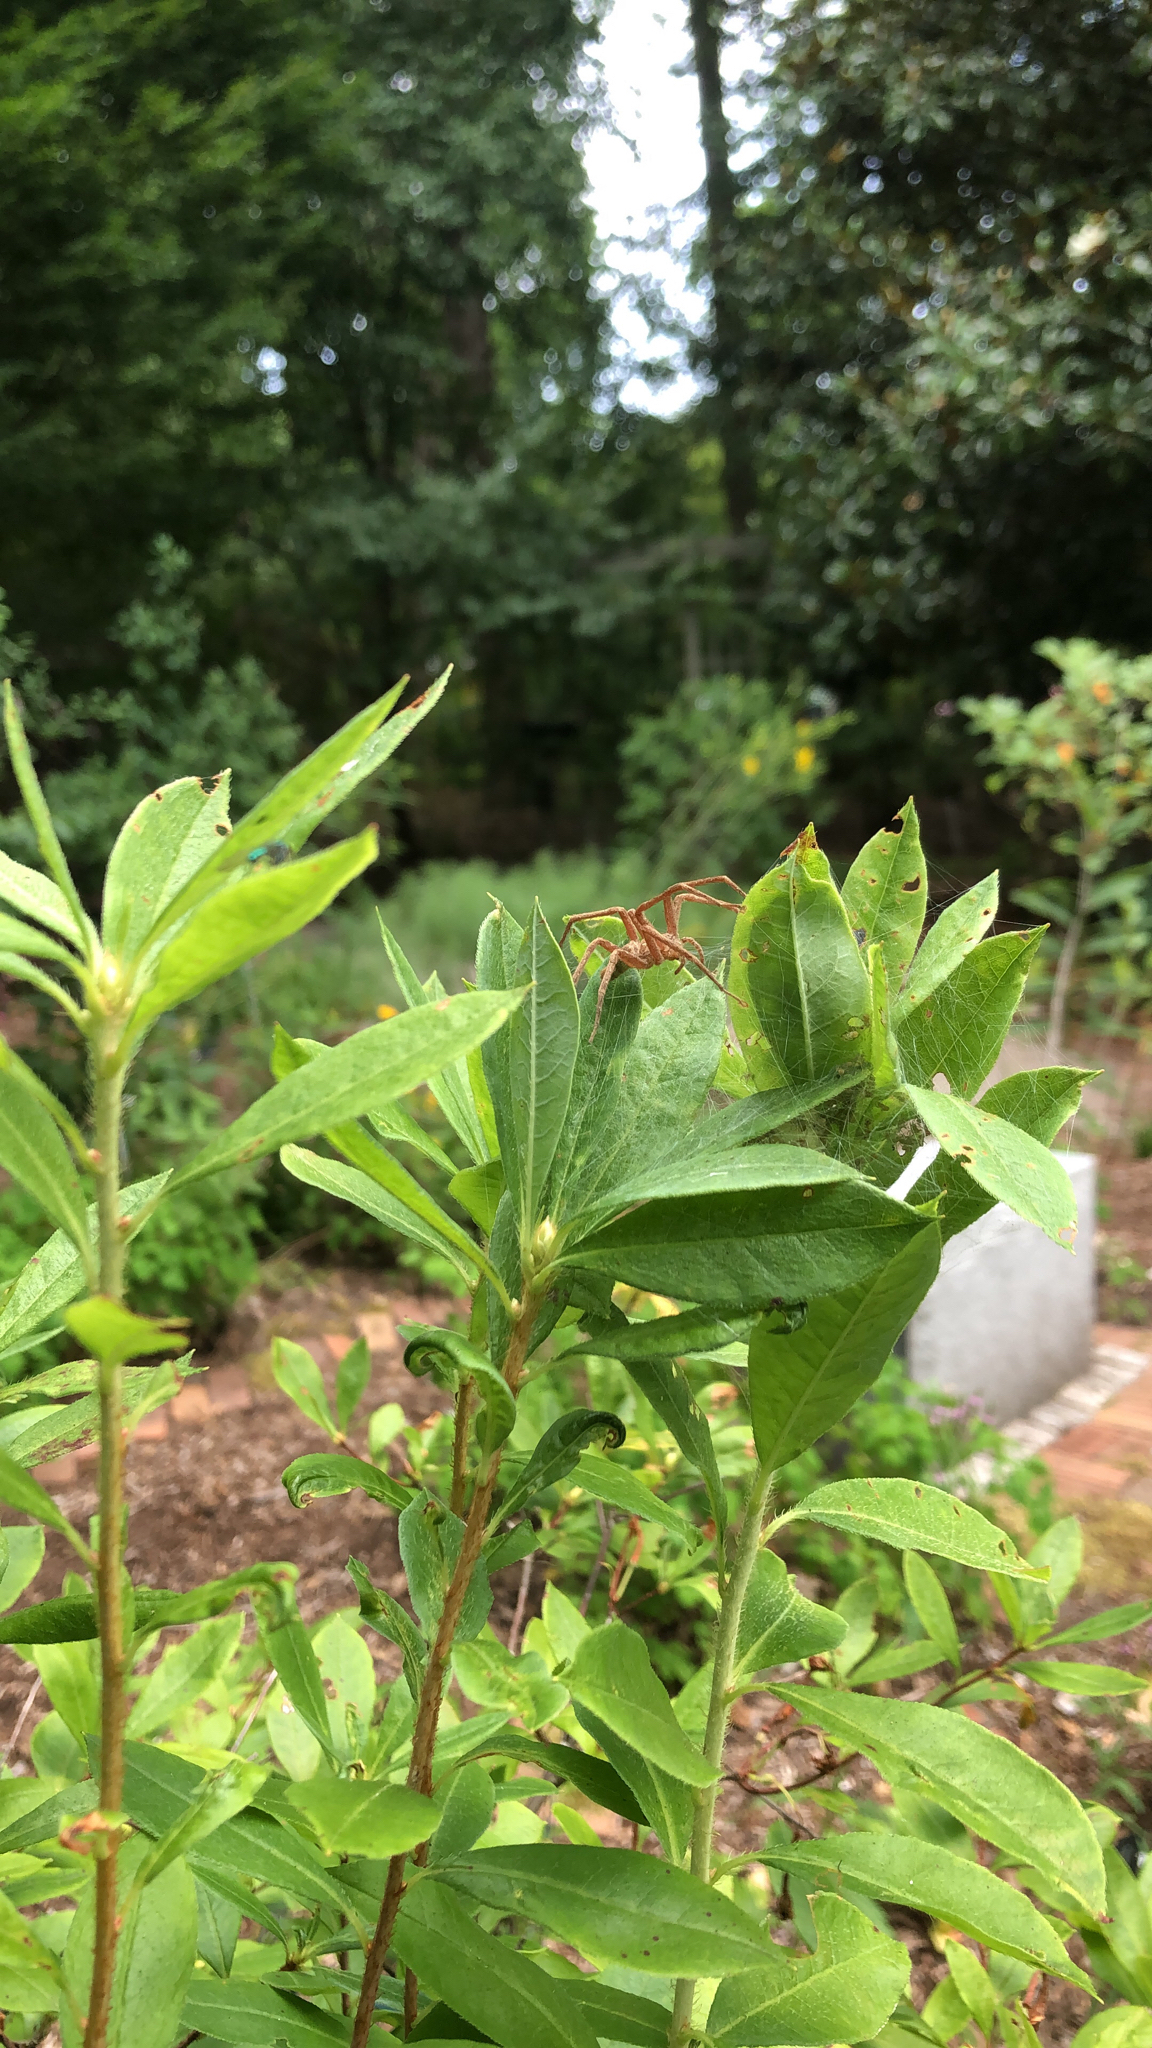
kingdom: Animalia
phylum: Arthropoda
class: Arachnida
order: Araneae
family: Pisauridae
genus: Pisaurina
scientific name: Pisaurina mira
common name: American nursery web spider
